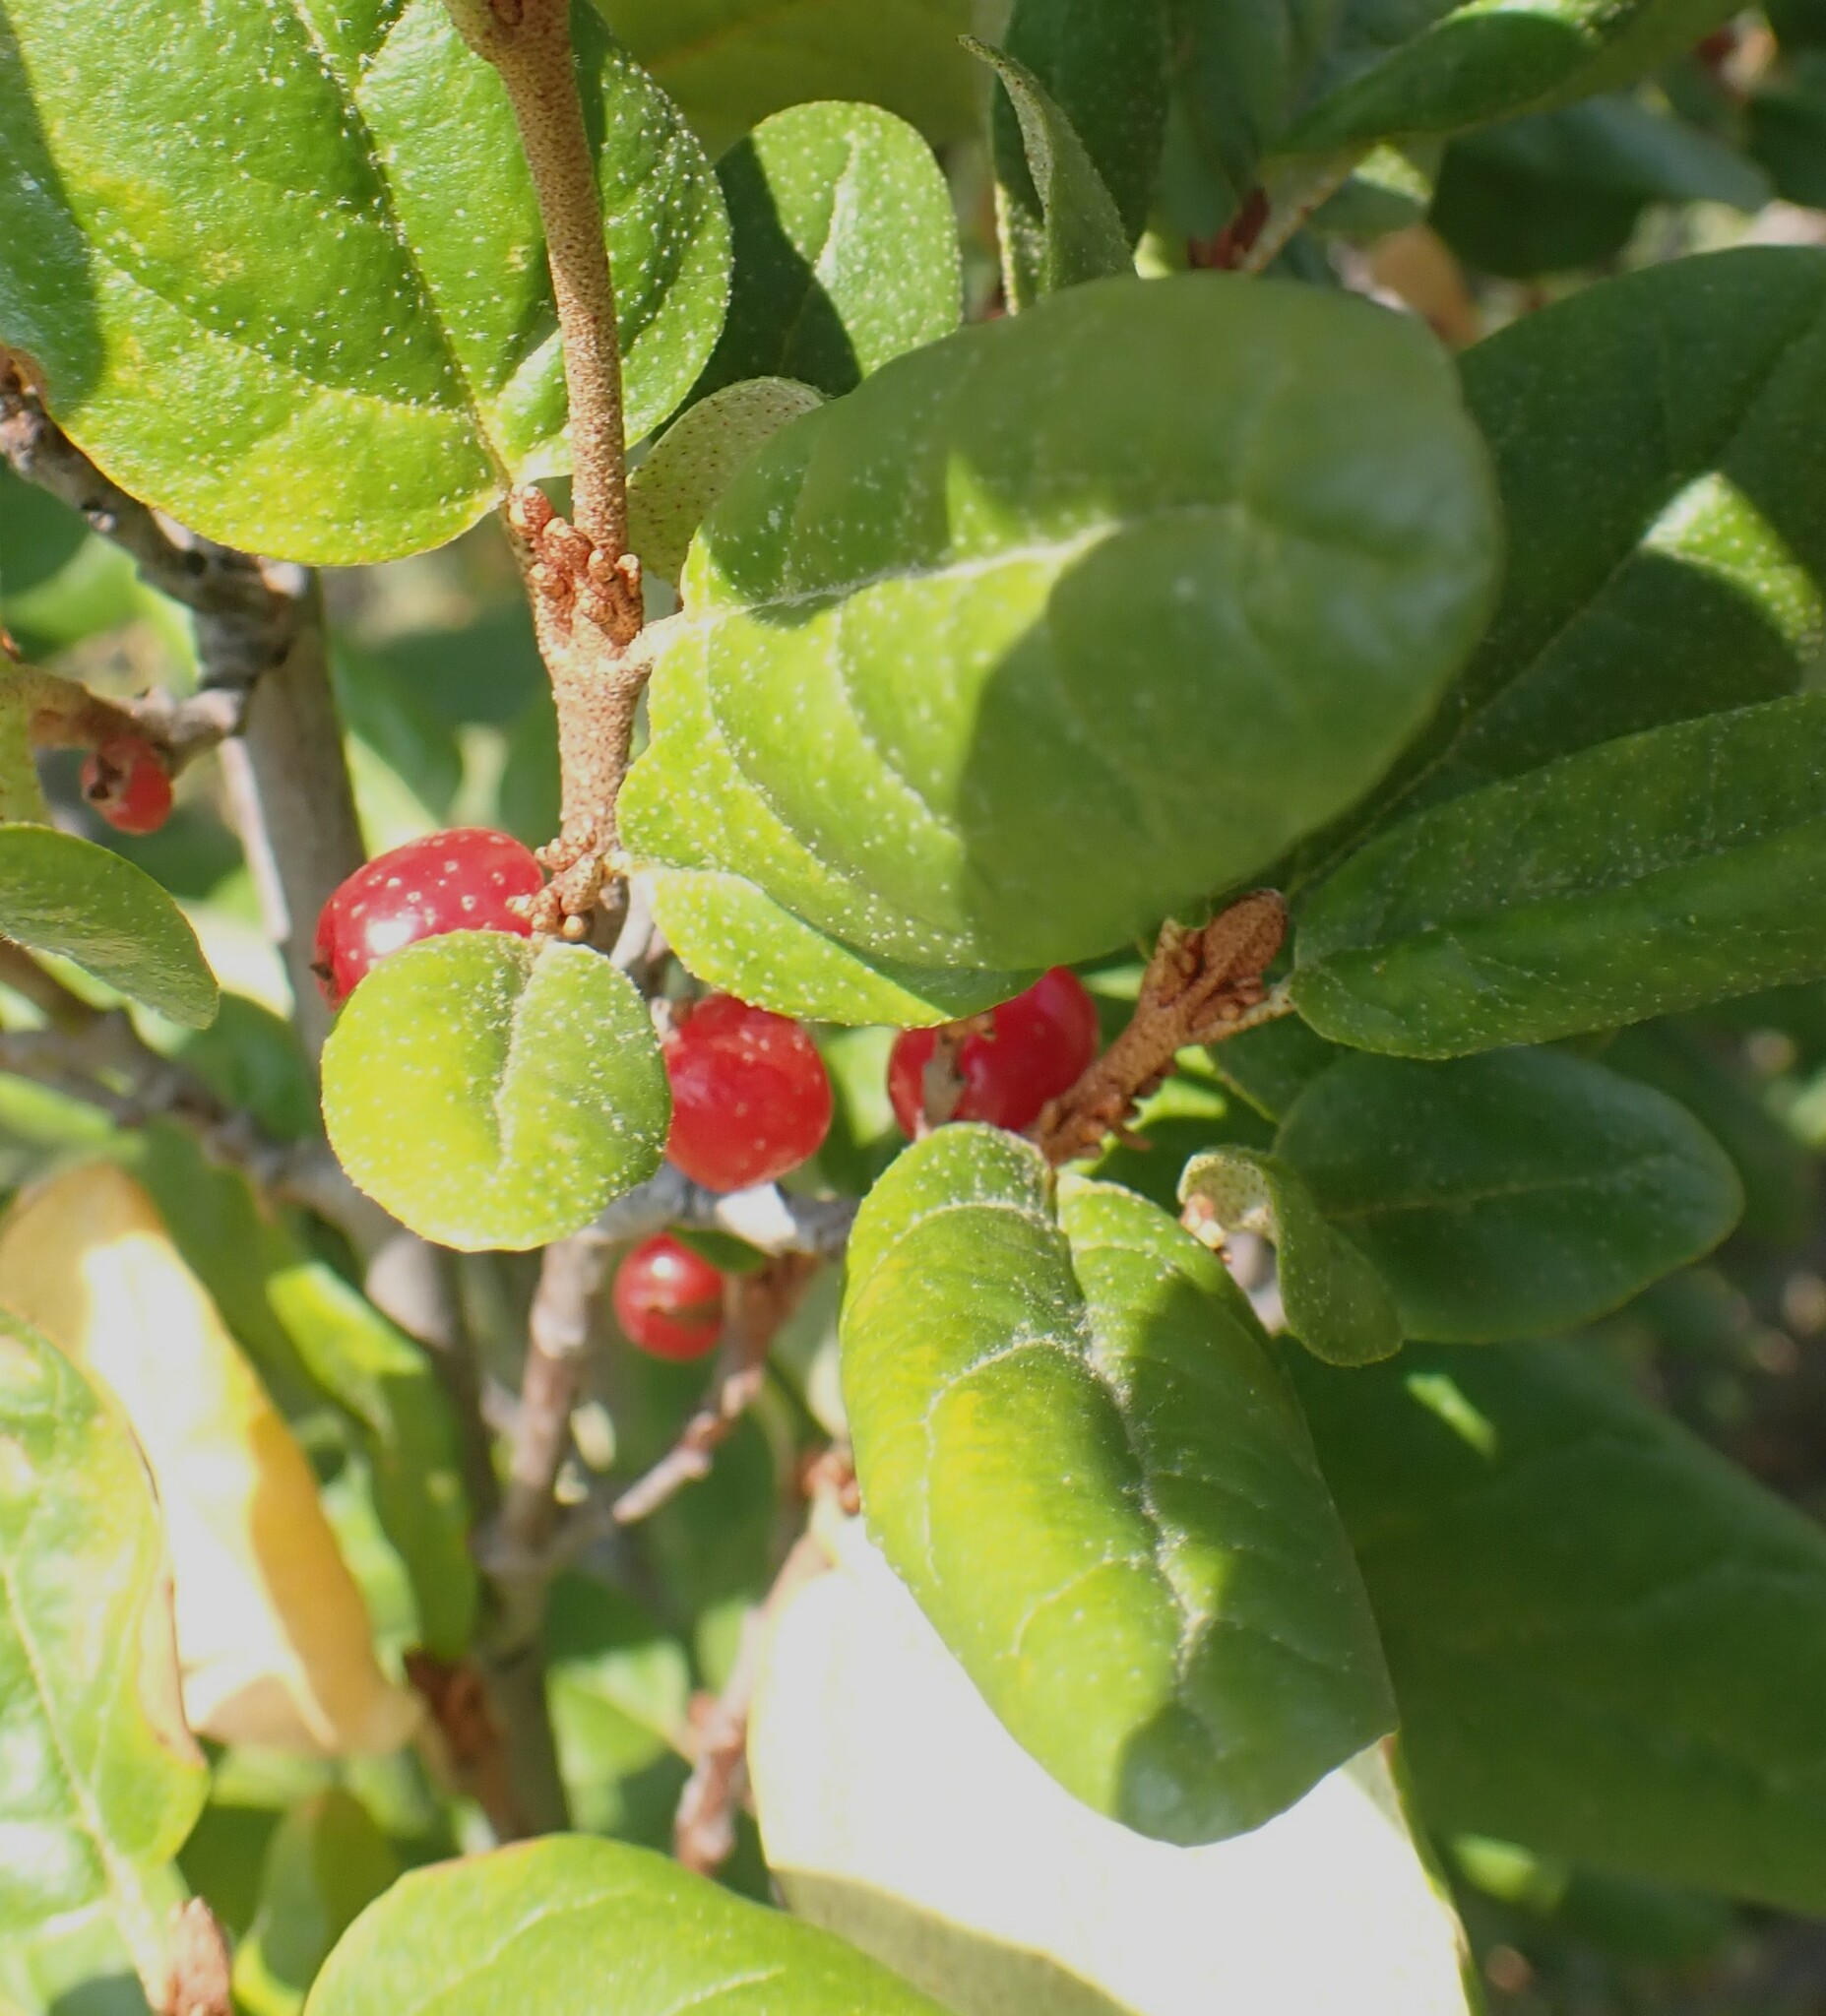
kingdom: Plantae
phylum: Tracheophyta
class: Magnoliopsida
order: Rosales
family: Elaeagnaceae
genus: Shepherdia
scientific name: Shepherdia canadensis
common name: Soapberry
